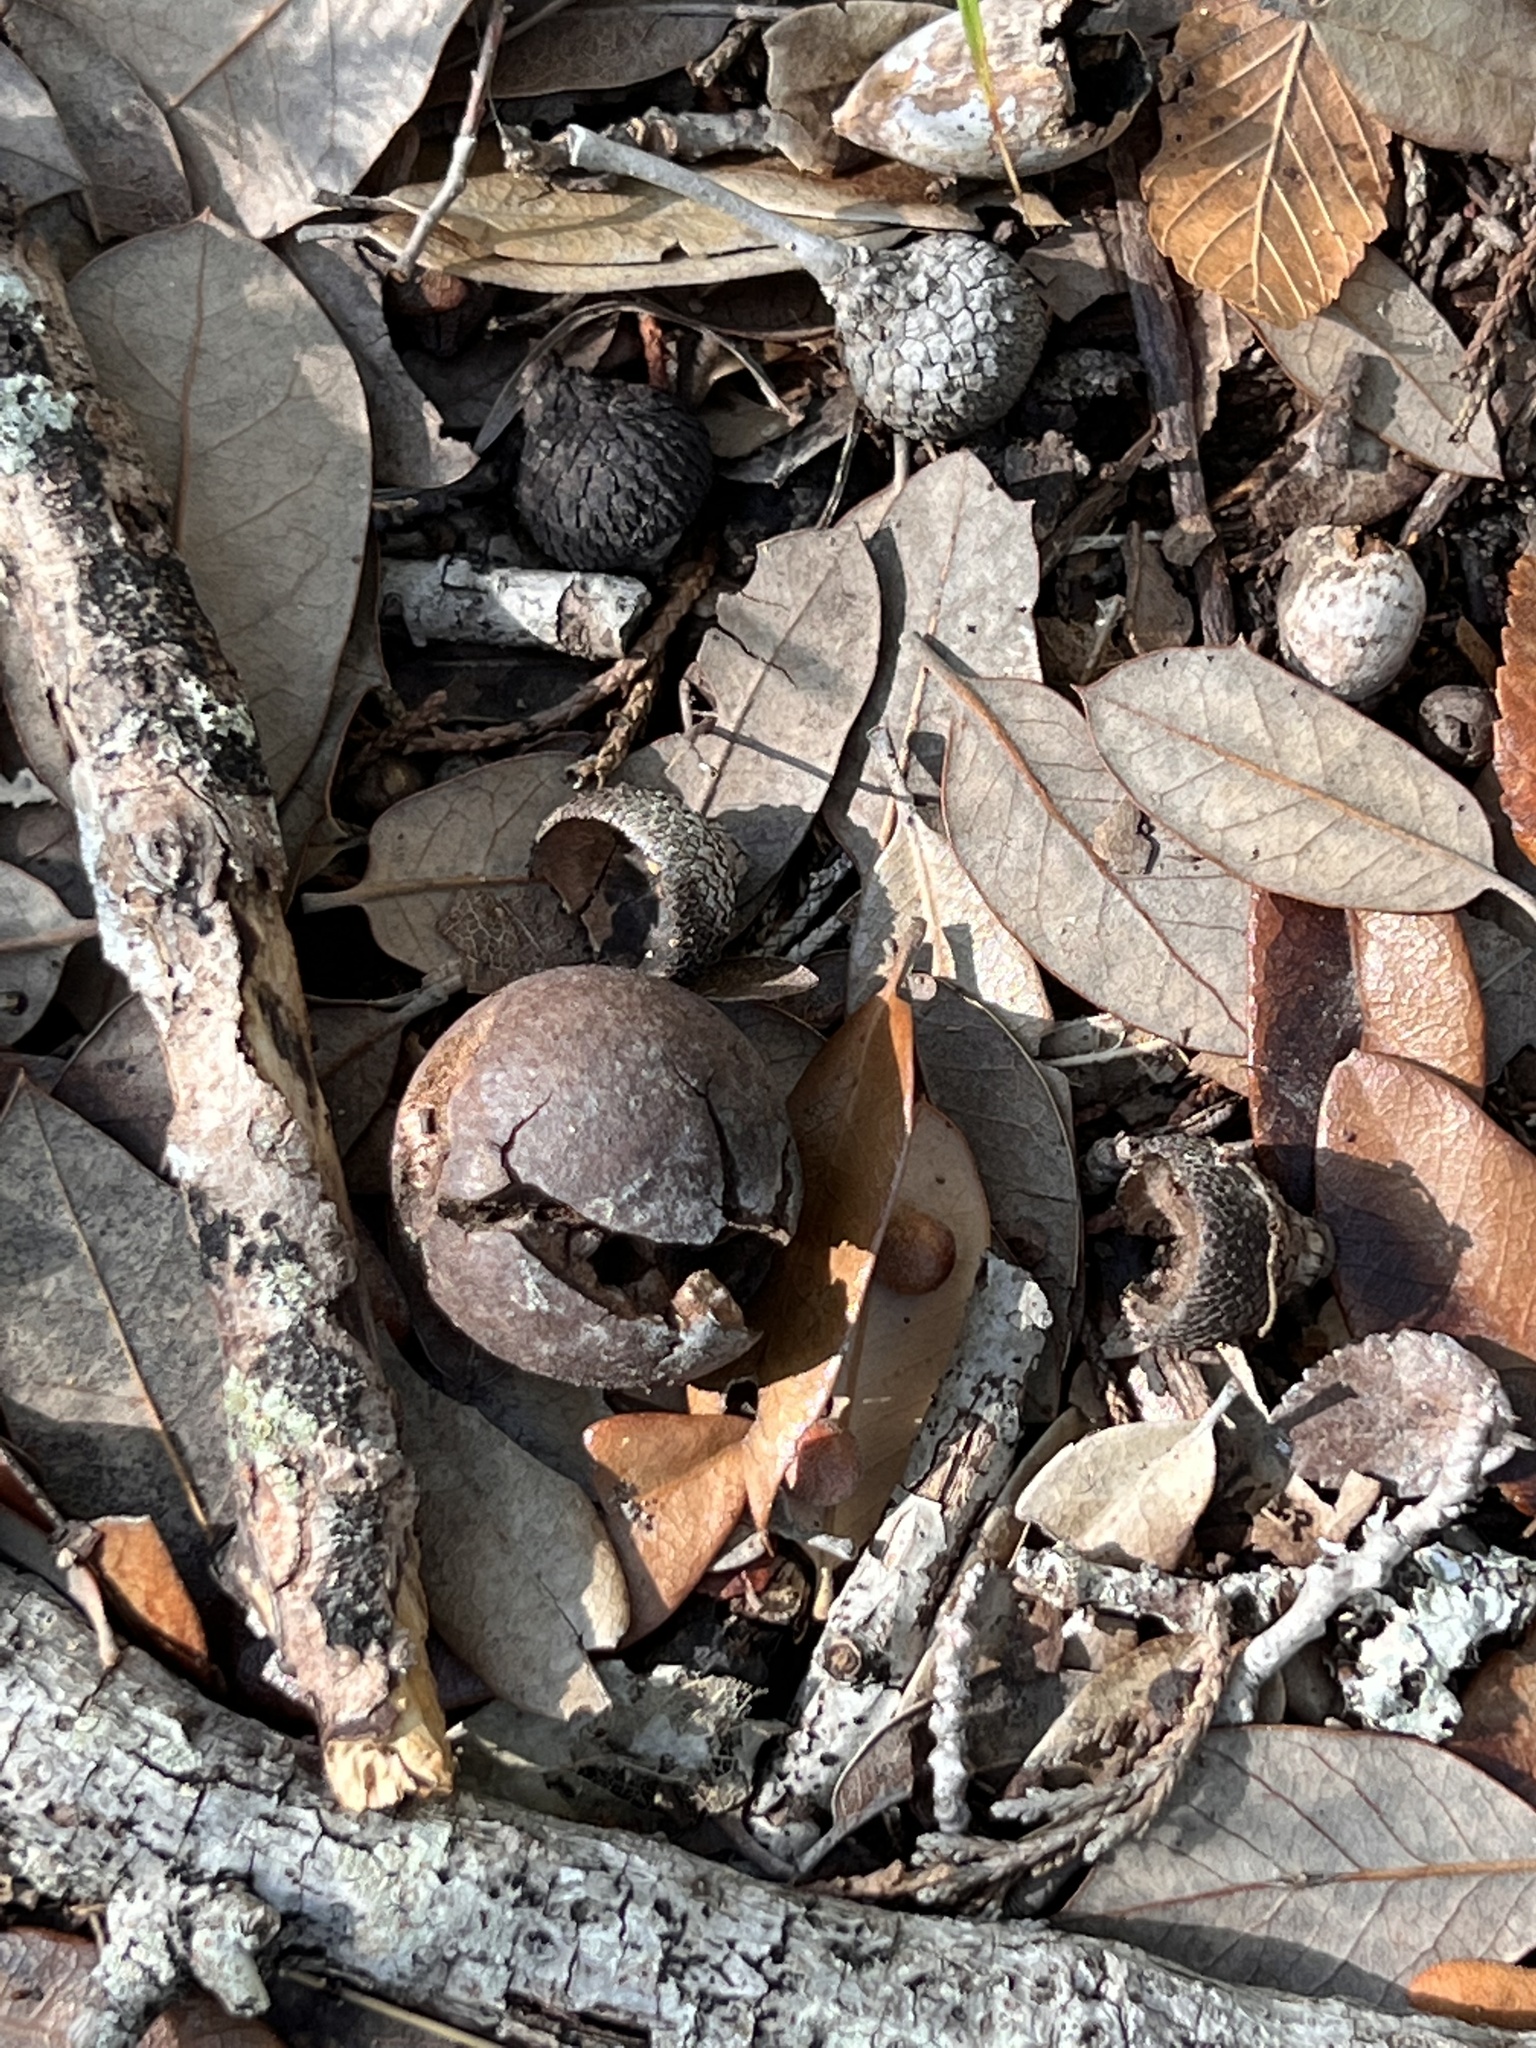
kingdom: Animalia
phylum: Arthropoda
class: Insecta
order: Hymenoptera
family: Cynipidae
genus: Disholcaspis
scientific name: Disholcaspis
